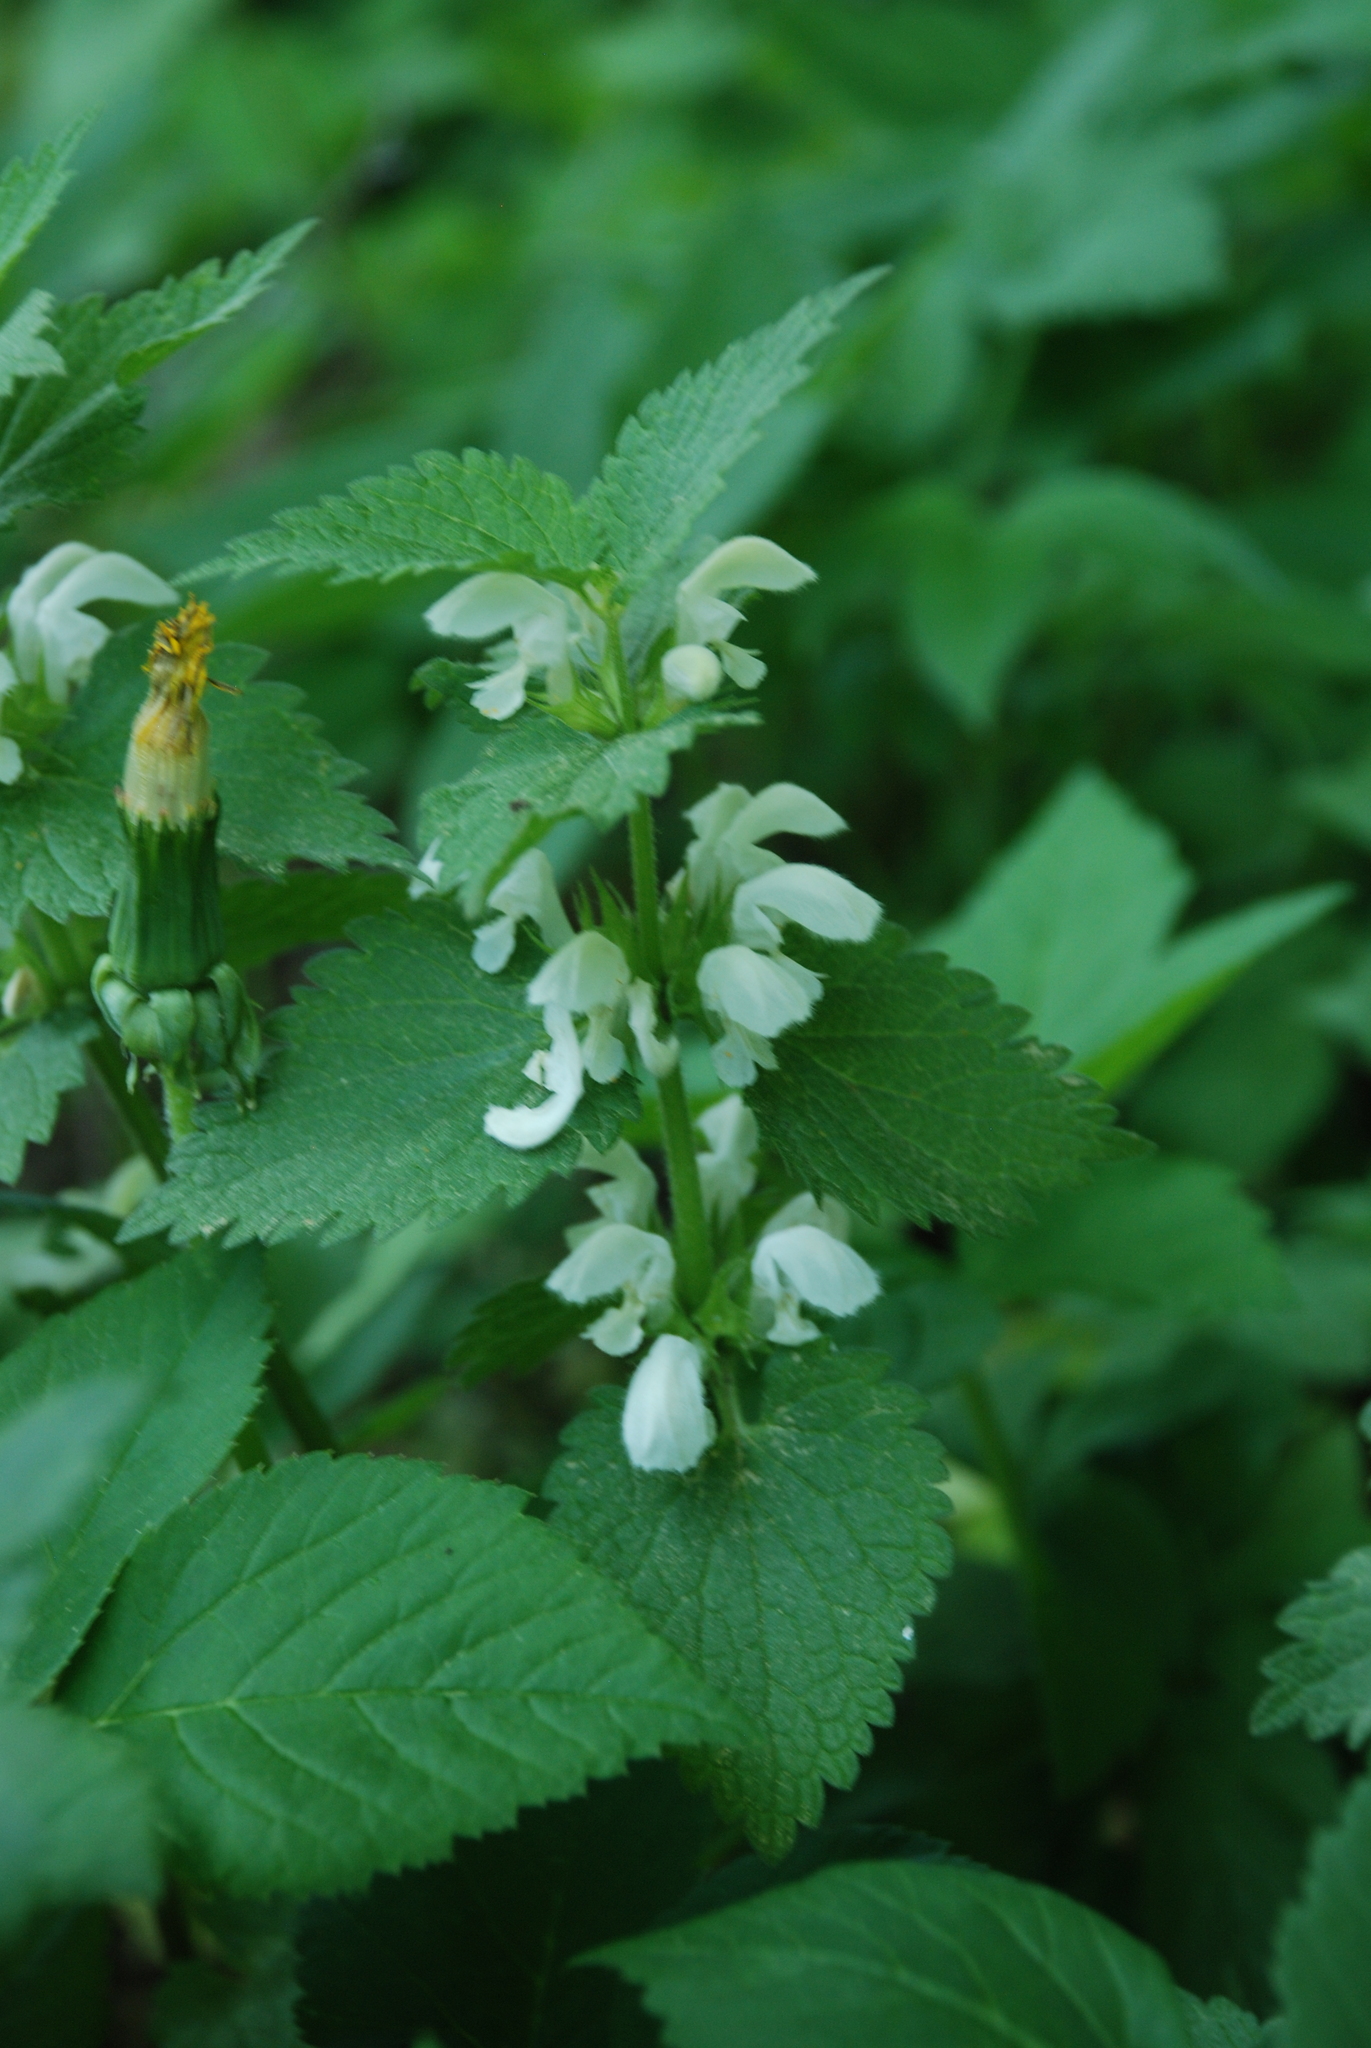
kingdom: Plantae
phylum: Tracheophyta
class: Magnoliopsida
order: Lamiales
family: Lamiaceae
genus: Lamium
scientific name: Lamium album
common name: White dead-nettle
